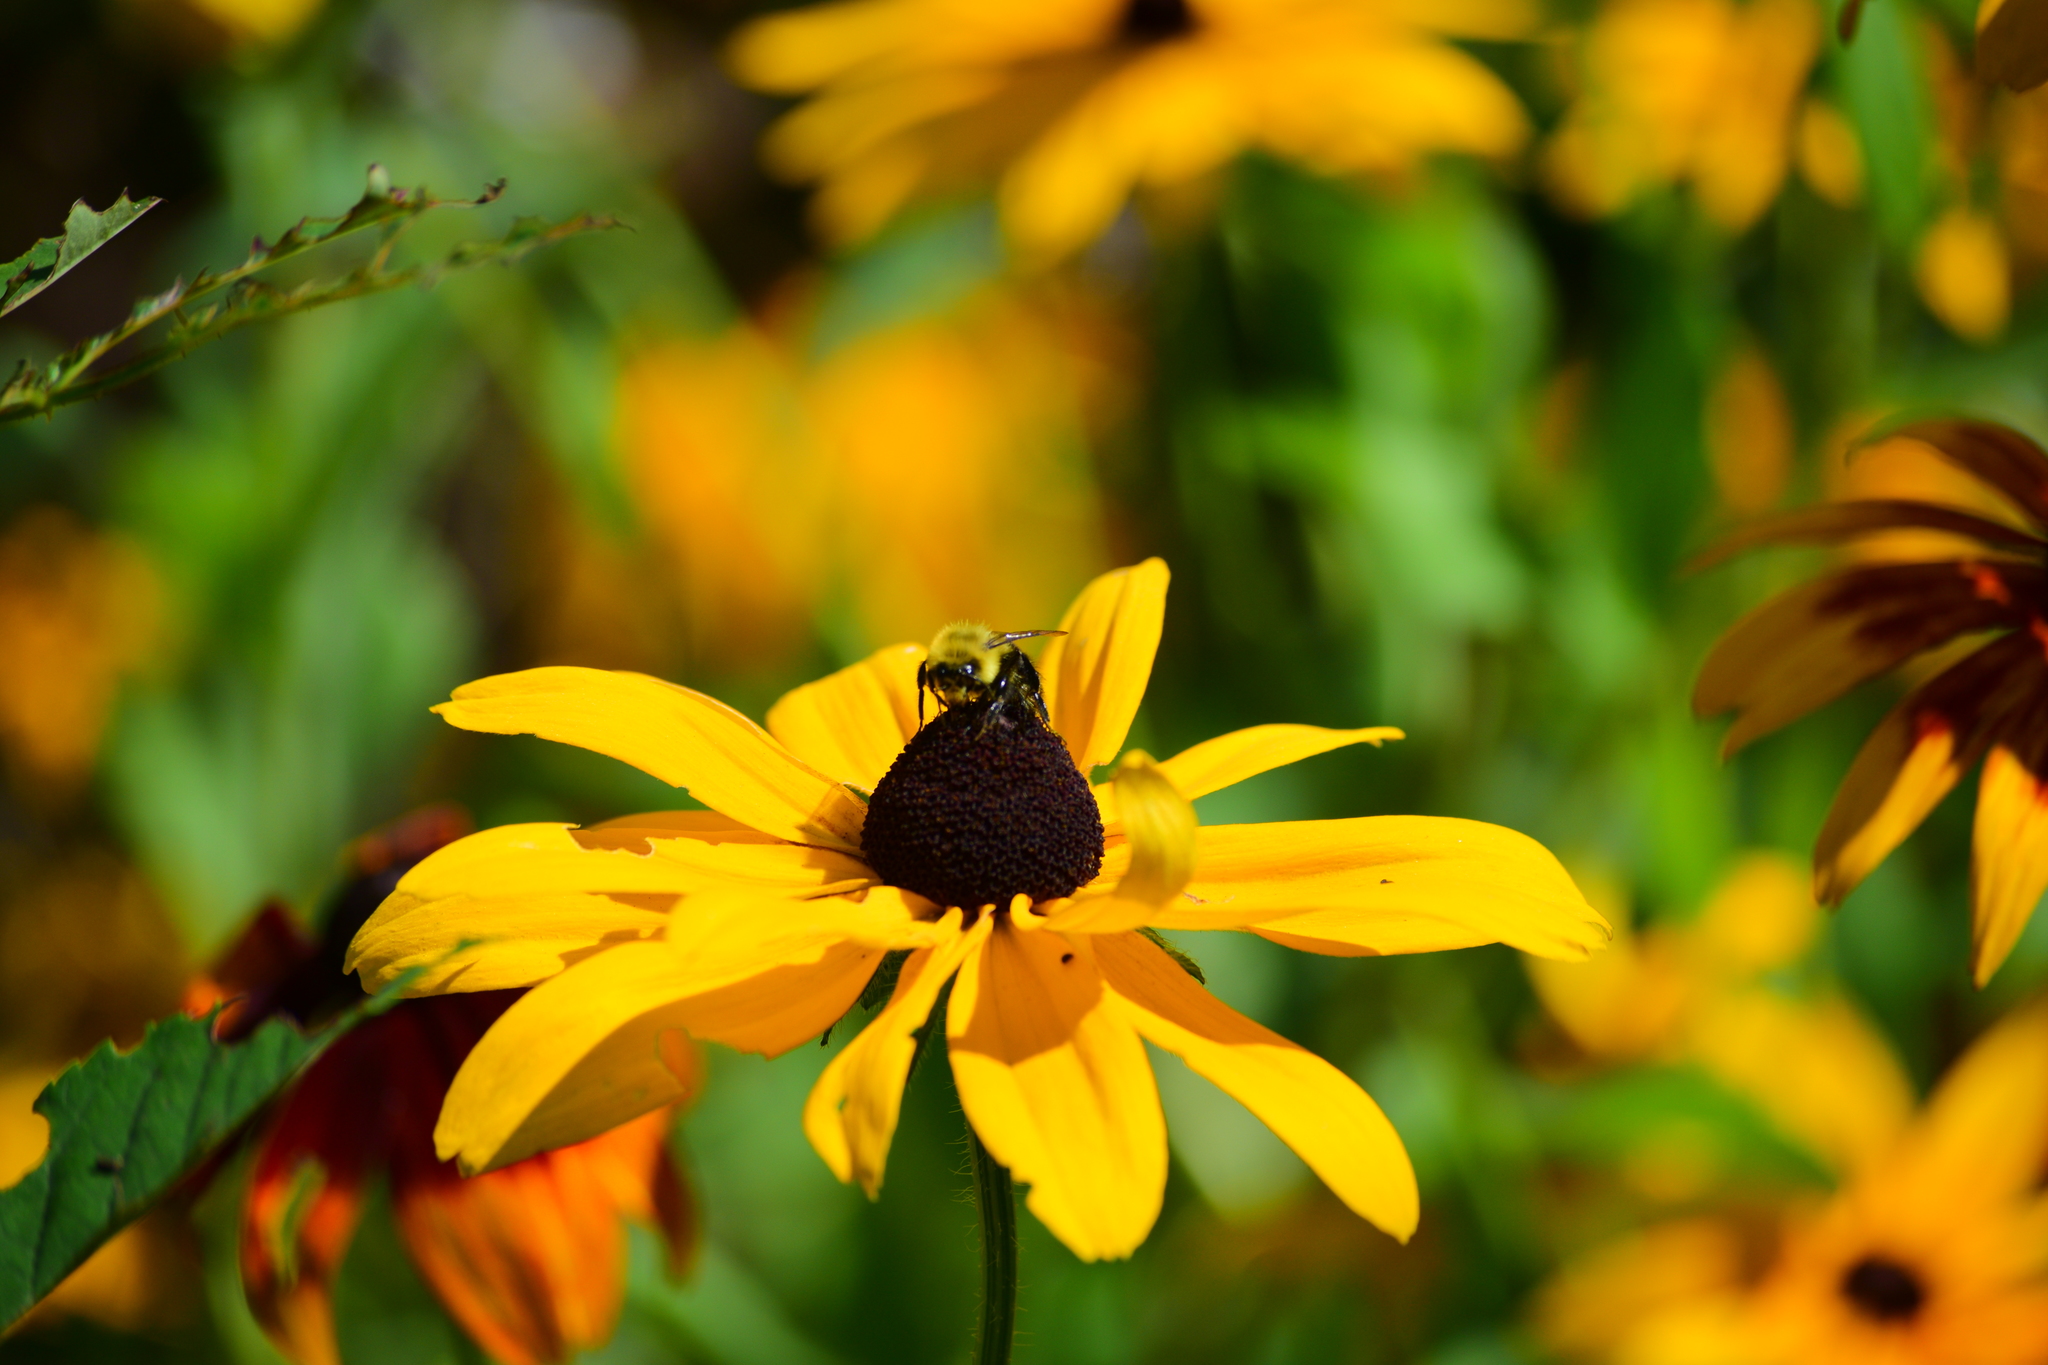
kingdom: Animalia
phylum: Arthropoda
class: Insecta
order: Hymenoptera
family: Apidae
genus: Bombus
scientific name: Bombus impatiens
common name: Common eastern bumble bee
